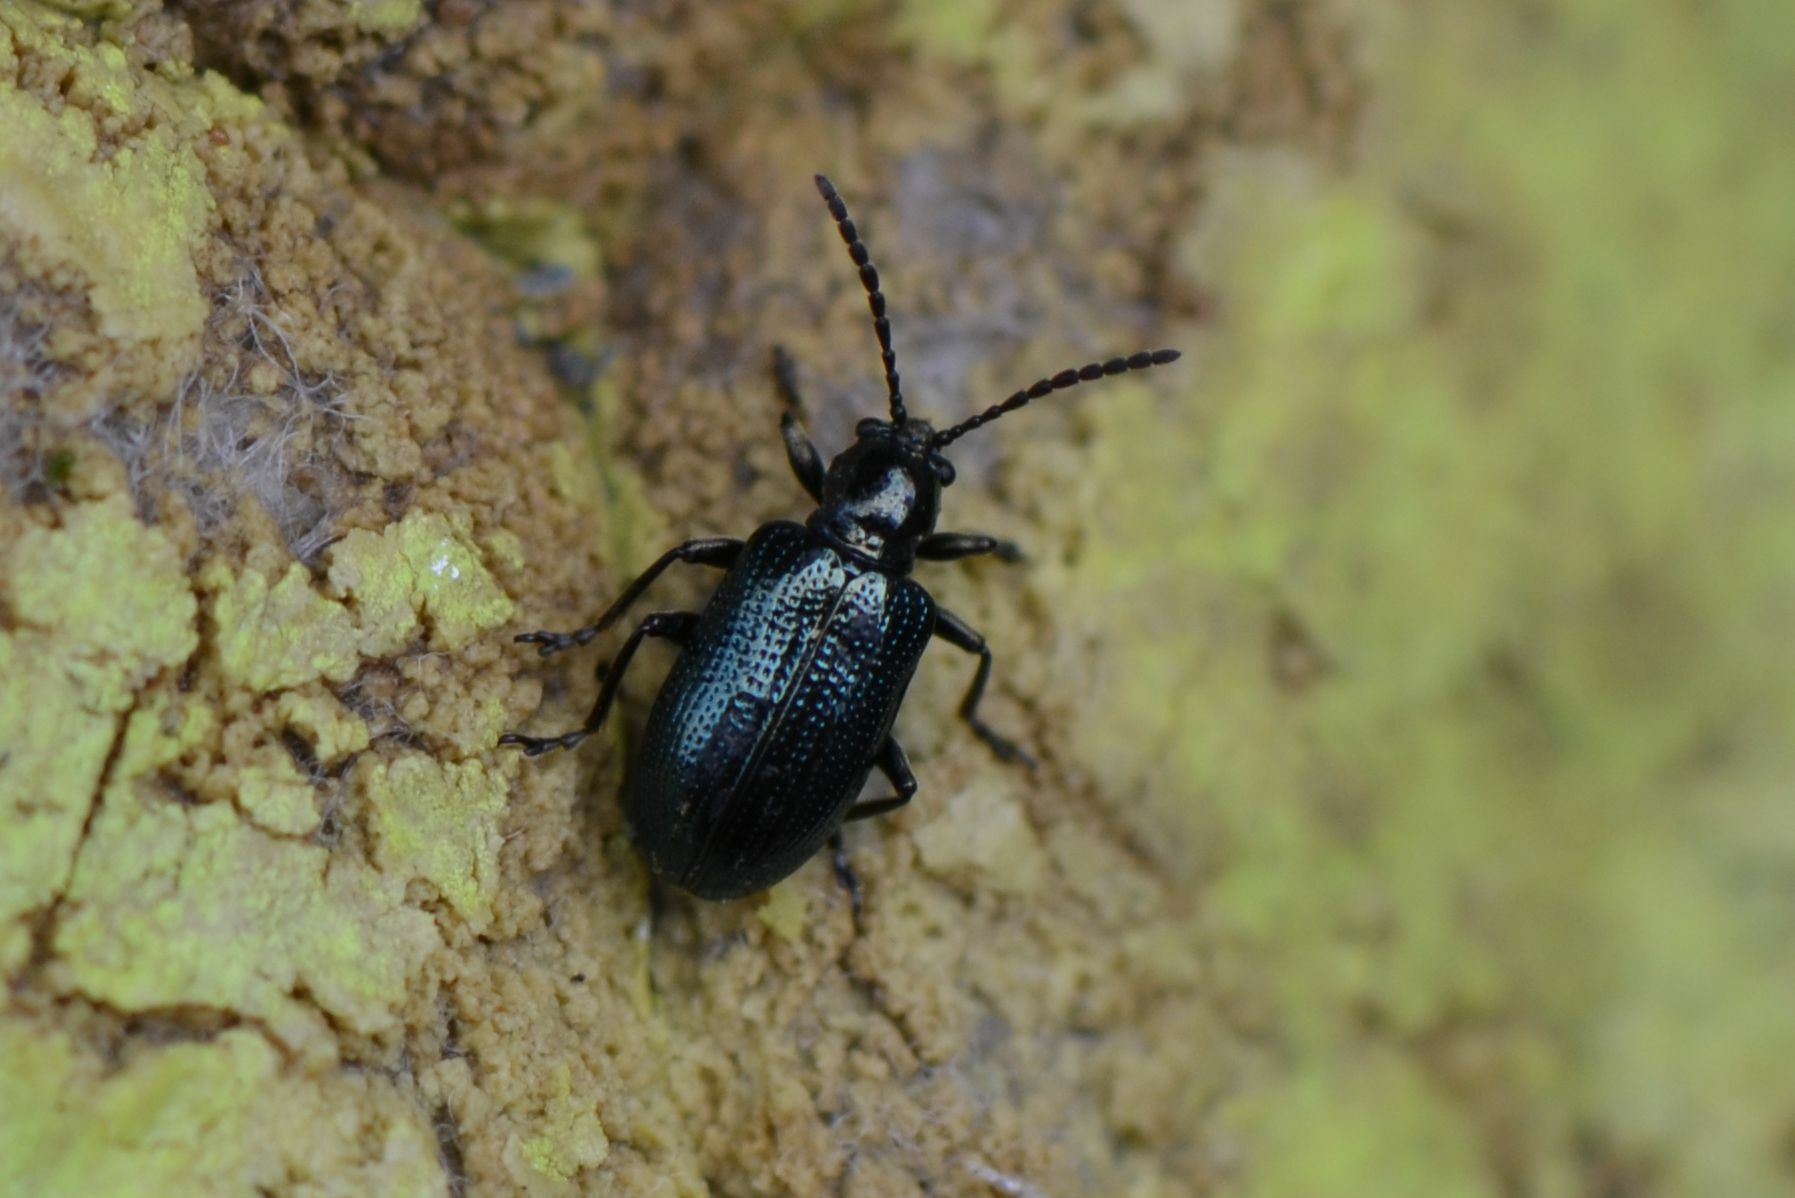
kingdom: Animalia
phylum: Arthropoda
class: Insecta
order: Coleoptera
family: Chrysomelidae
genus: Oulema
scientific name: Oulema gallaeciana
